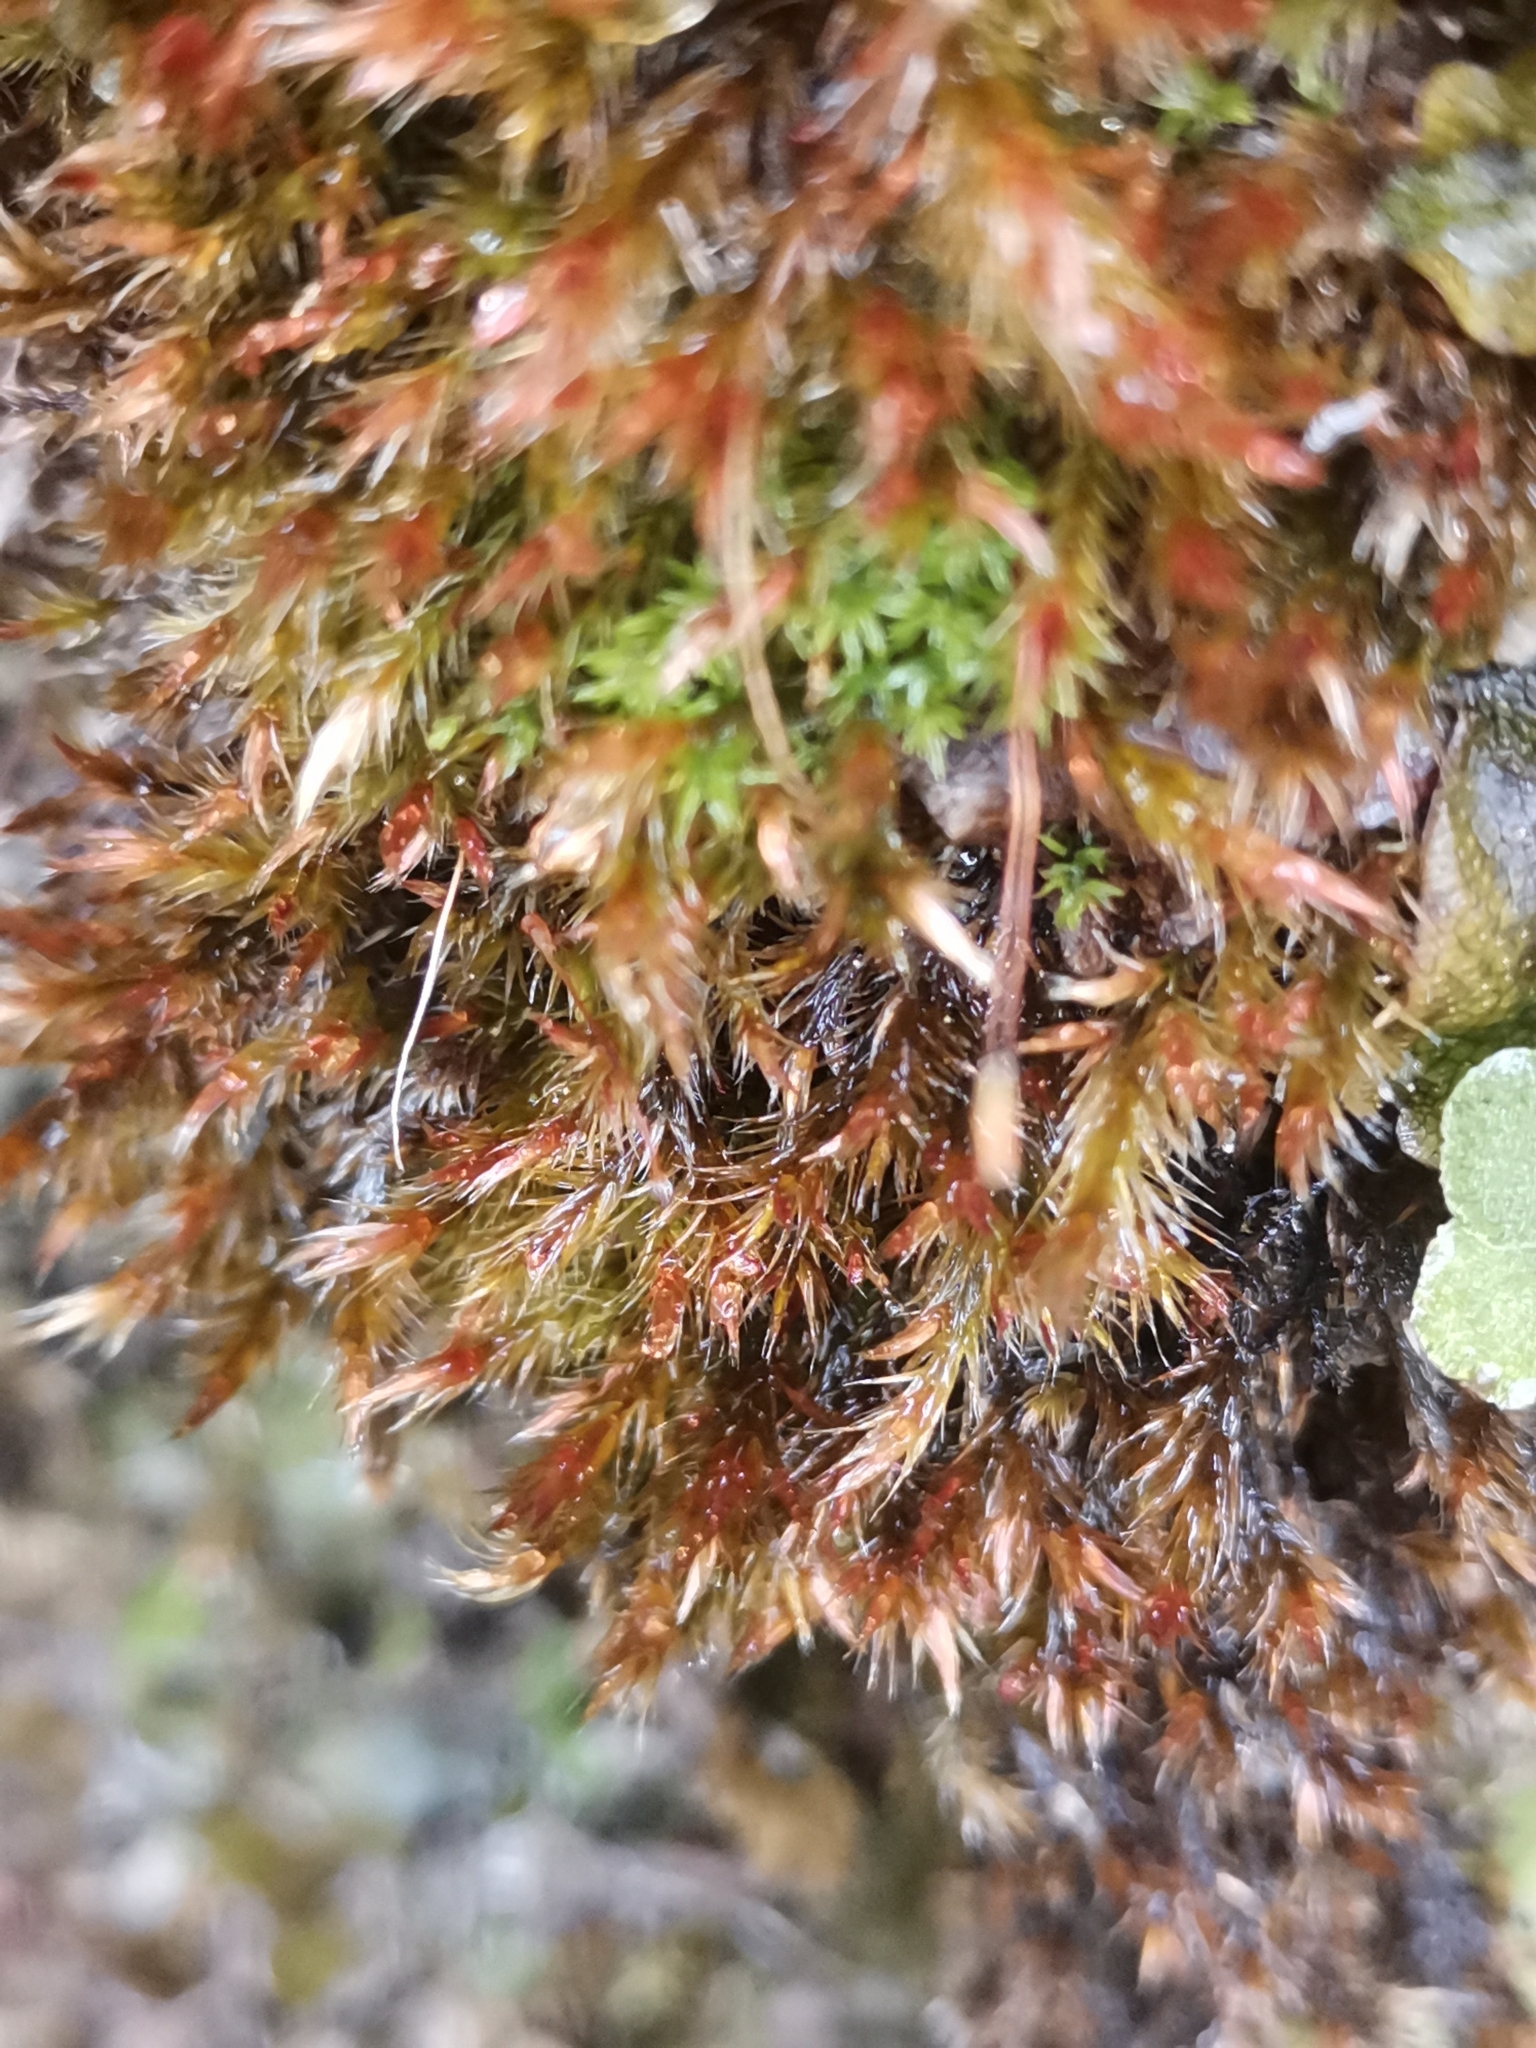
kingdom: Plantae
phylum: Bryophyta
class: Bryopsida
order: Hypnales
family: Plagiotheciaceae
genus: Orthothecium
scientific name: Orthothecium rufescens
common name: Red leskea
